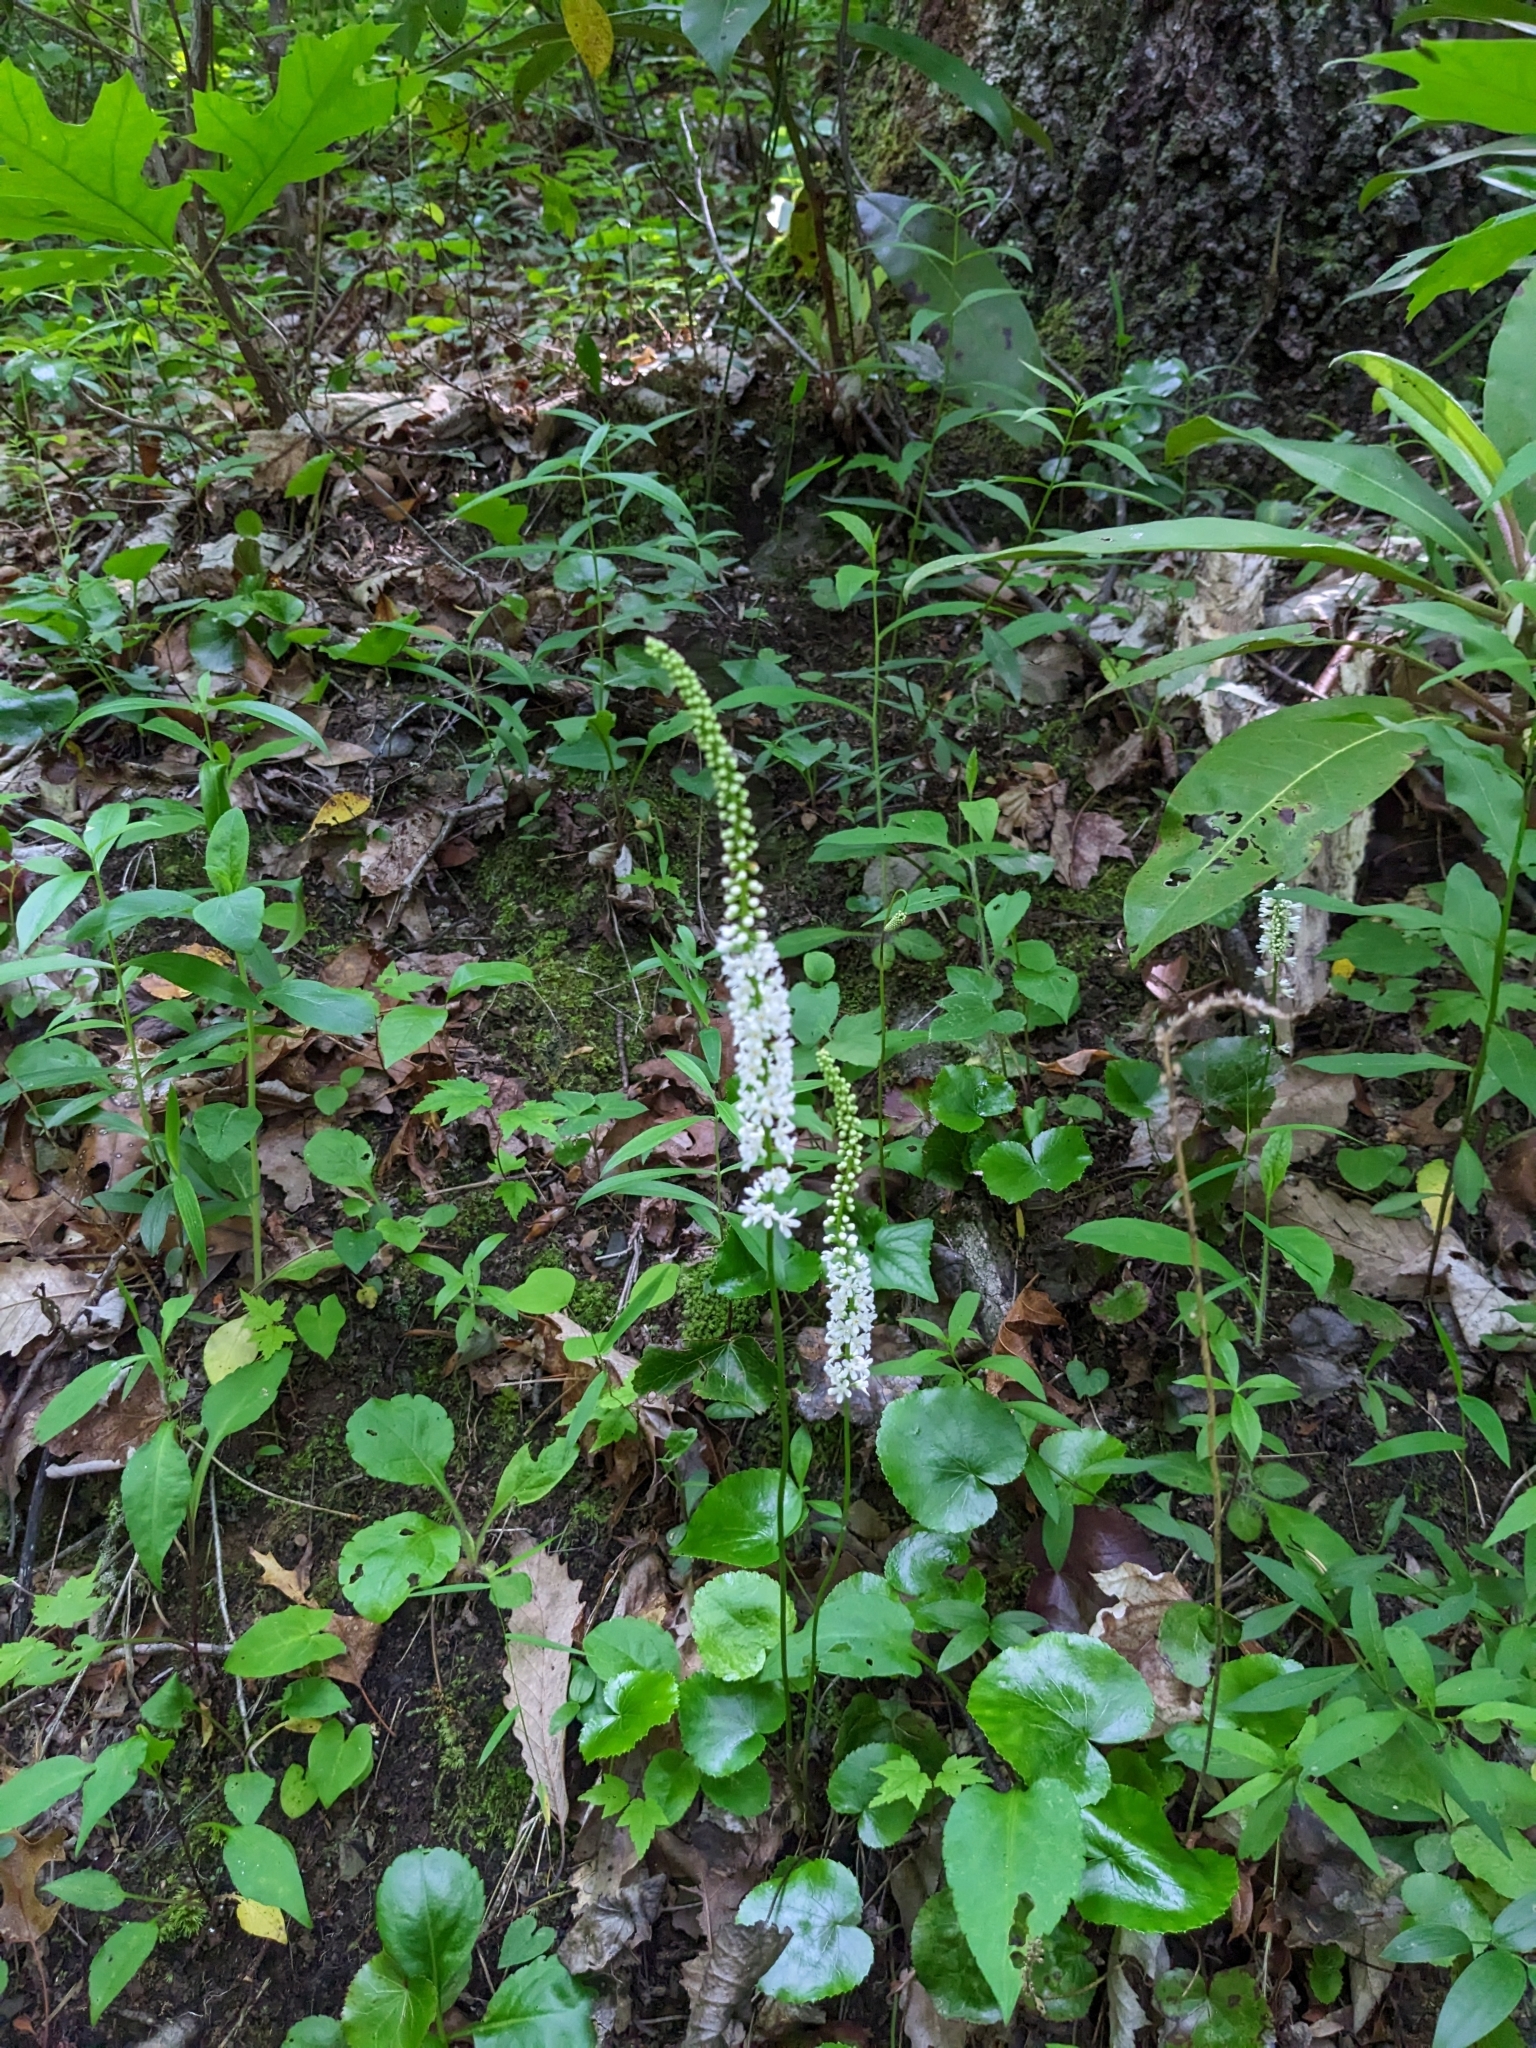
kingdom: Plantae
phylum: Tracheophyta
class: Magnoliopsida
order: Ericales
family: Diapensiaceae
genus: Galax
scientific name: Galax urceolata
